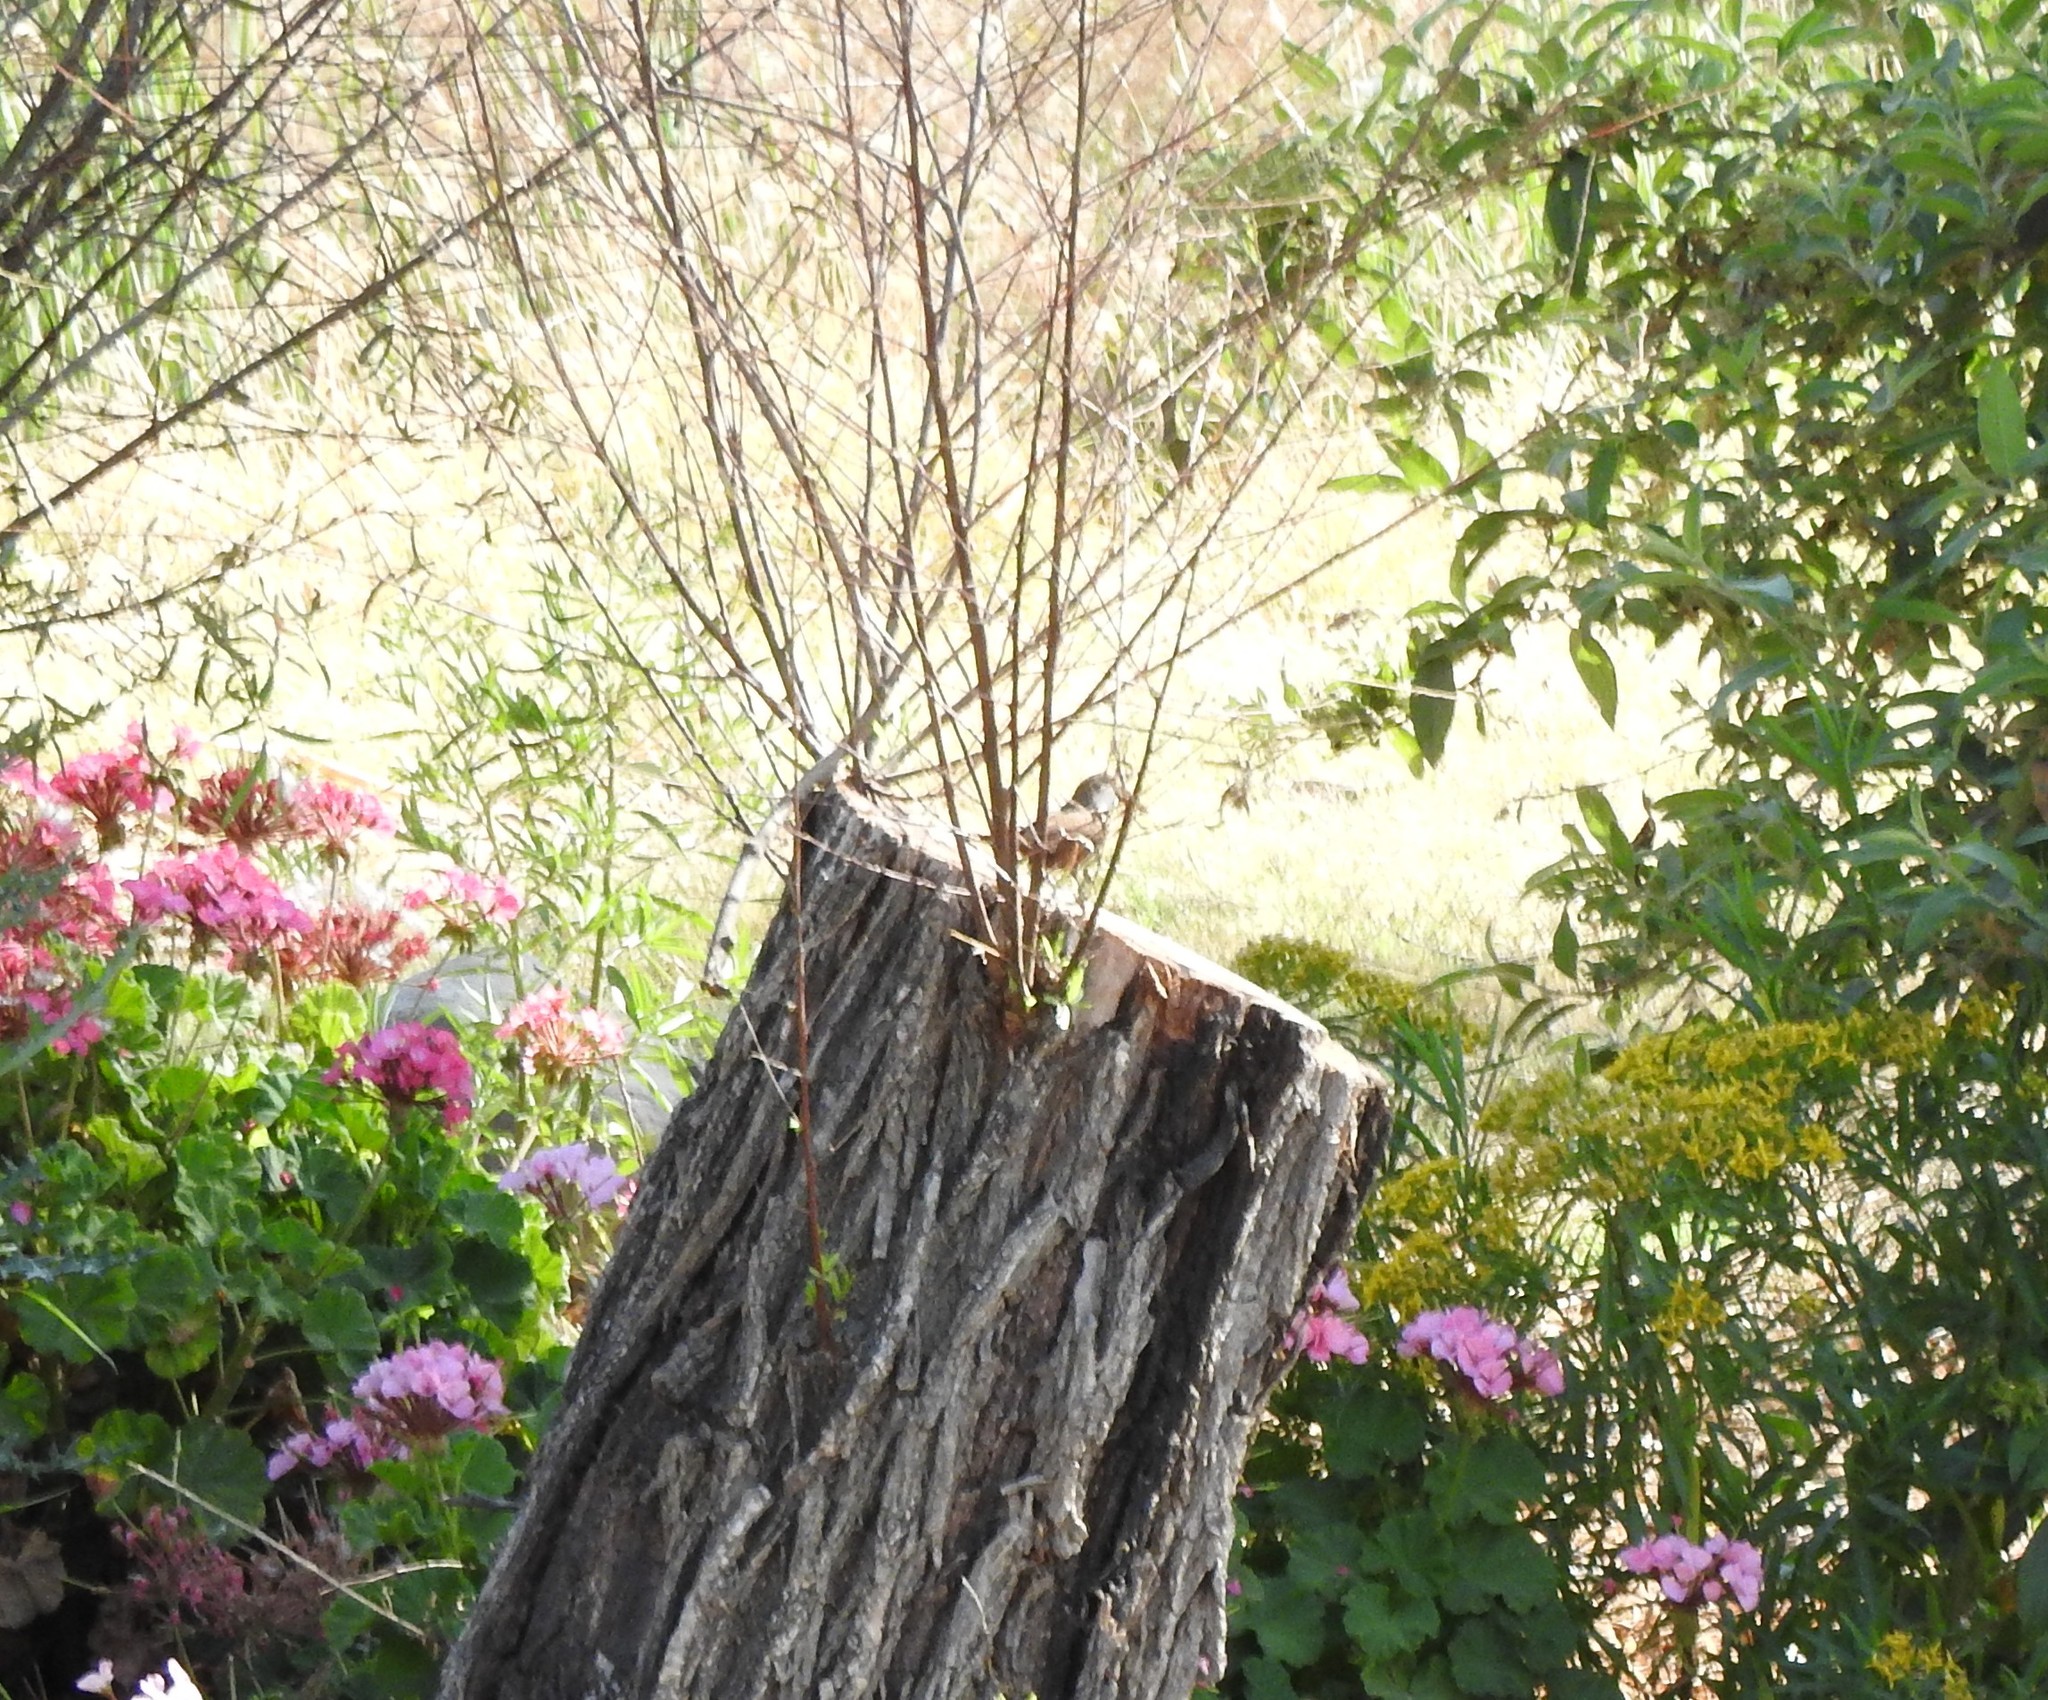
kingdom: Animalia
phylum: Chordata
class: Aves
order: Passeriformes
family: Troglodytidae
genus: Catherpes
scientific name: Catherpes mexicanus
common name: Canyon wren
